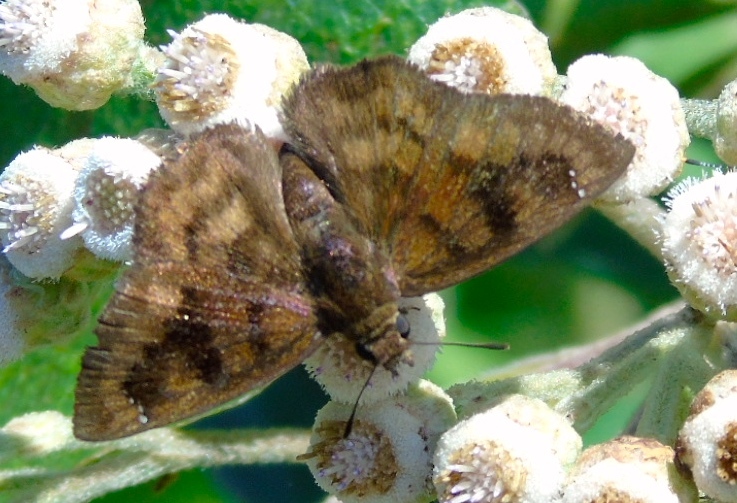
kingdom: Animalia
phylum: Arthropoda
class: Insecta
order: Lepidoptera
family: Hesperiidae
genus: Nisoniades
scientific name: Nisoniades
